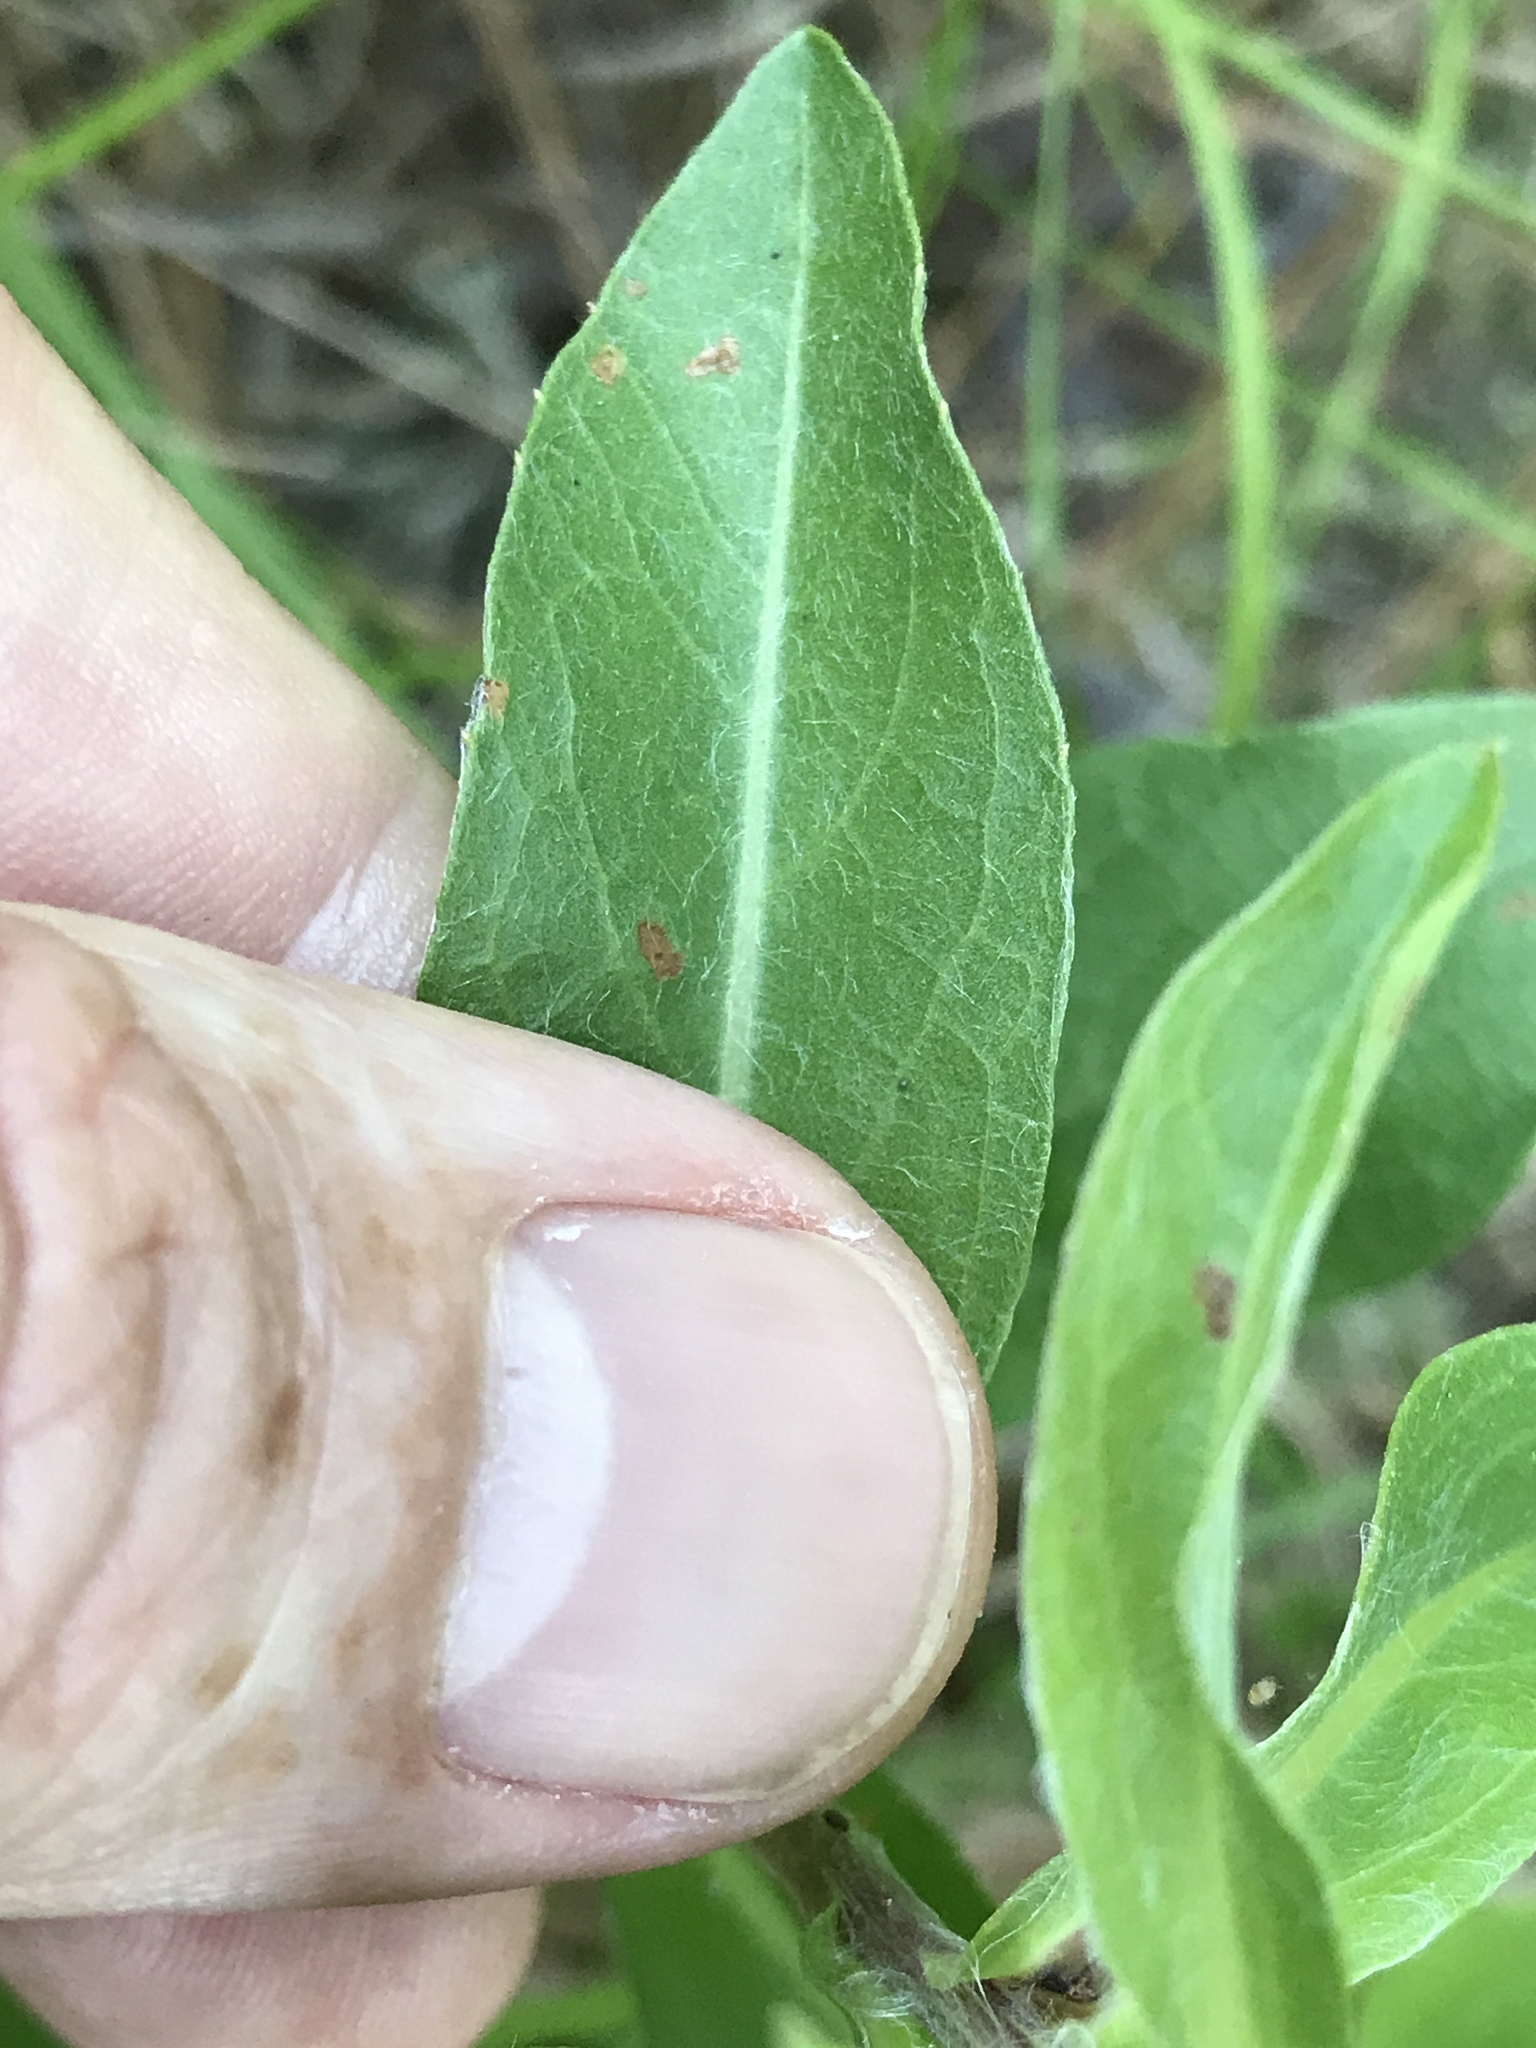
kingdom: Plantae
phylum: Tracheophyta
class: Magnoliopsida
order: Asterales
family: Asteraceae
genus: Chrysopsis
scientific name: Chrysopsis mariana
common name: Maryland golden-aster
